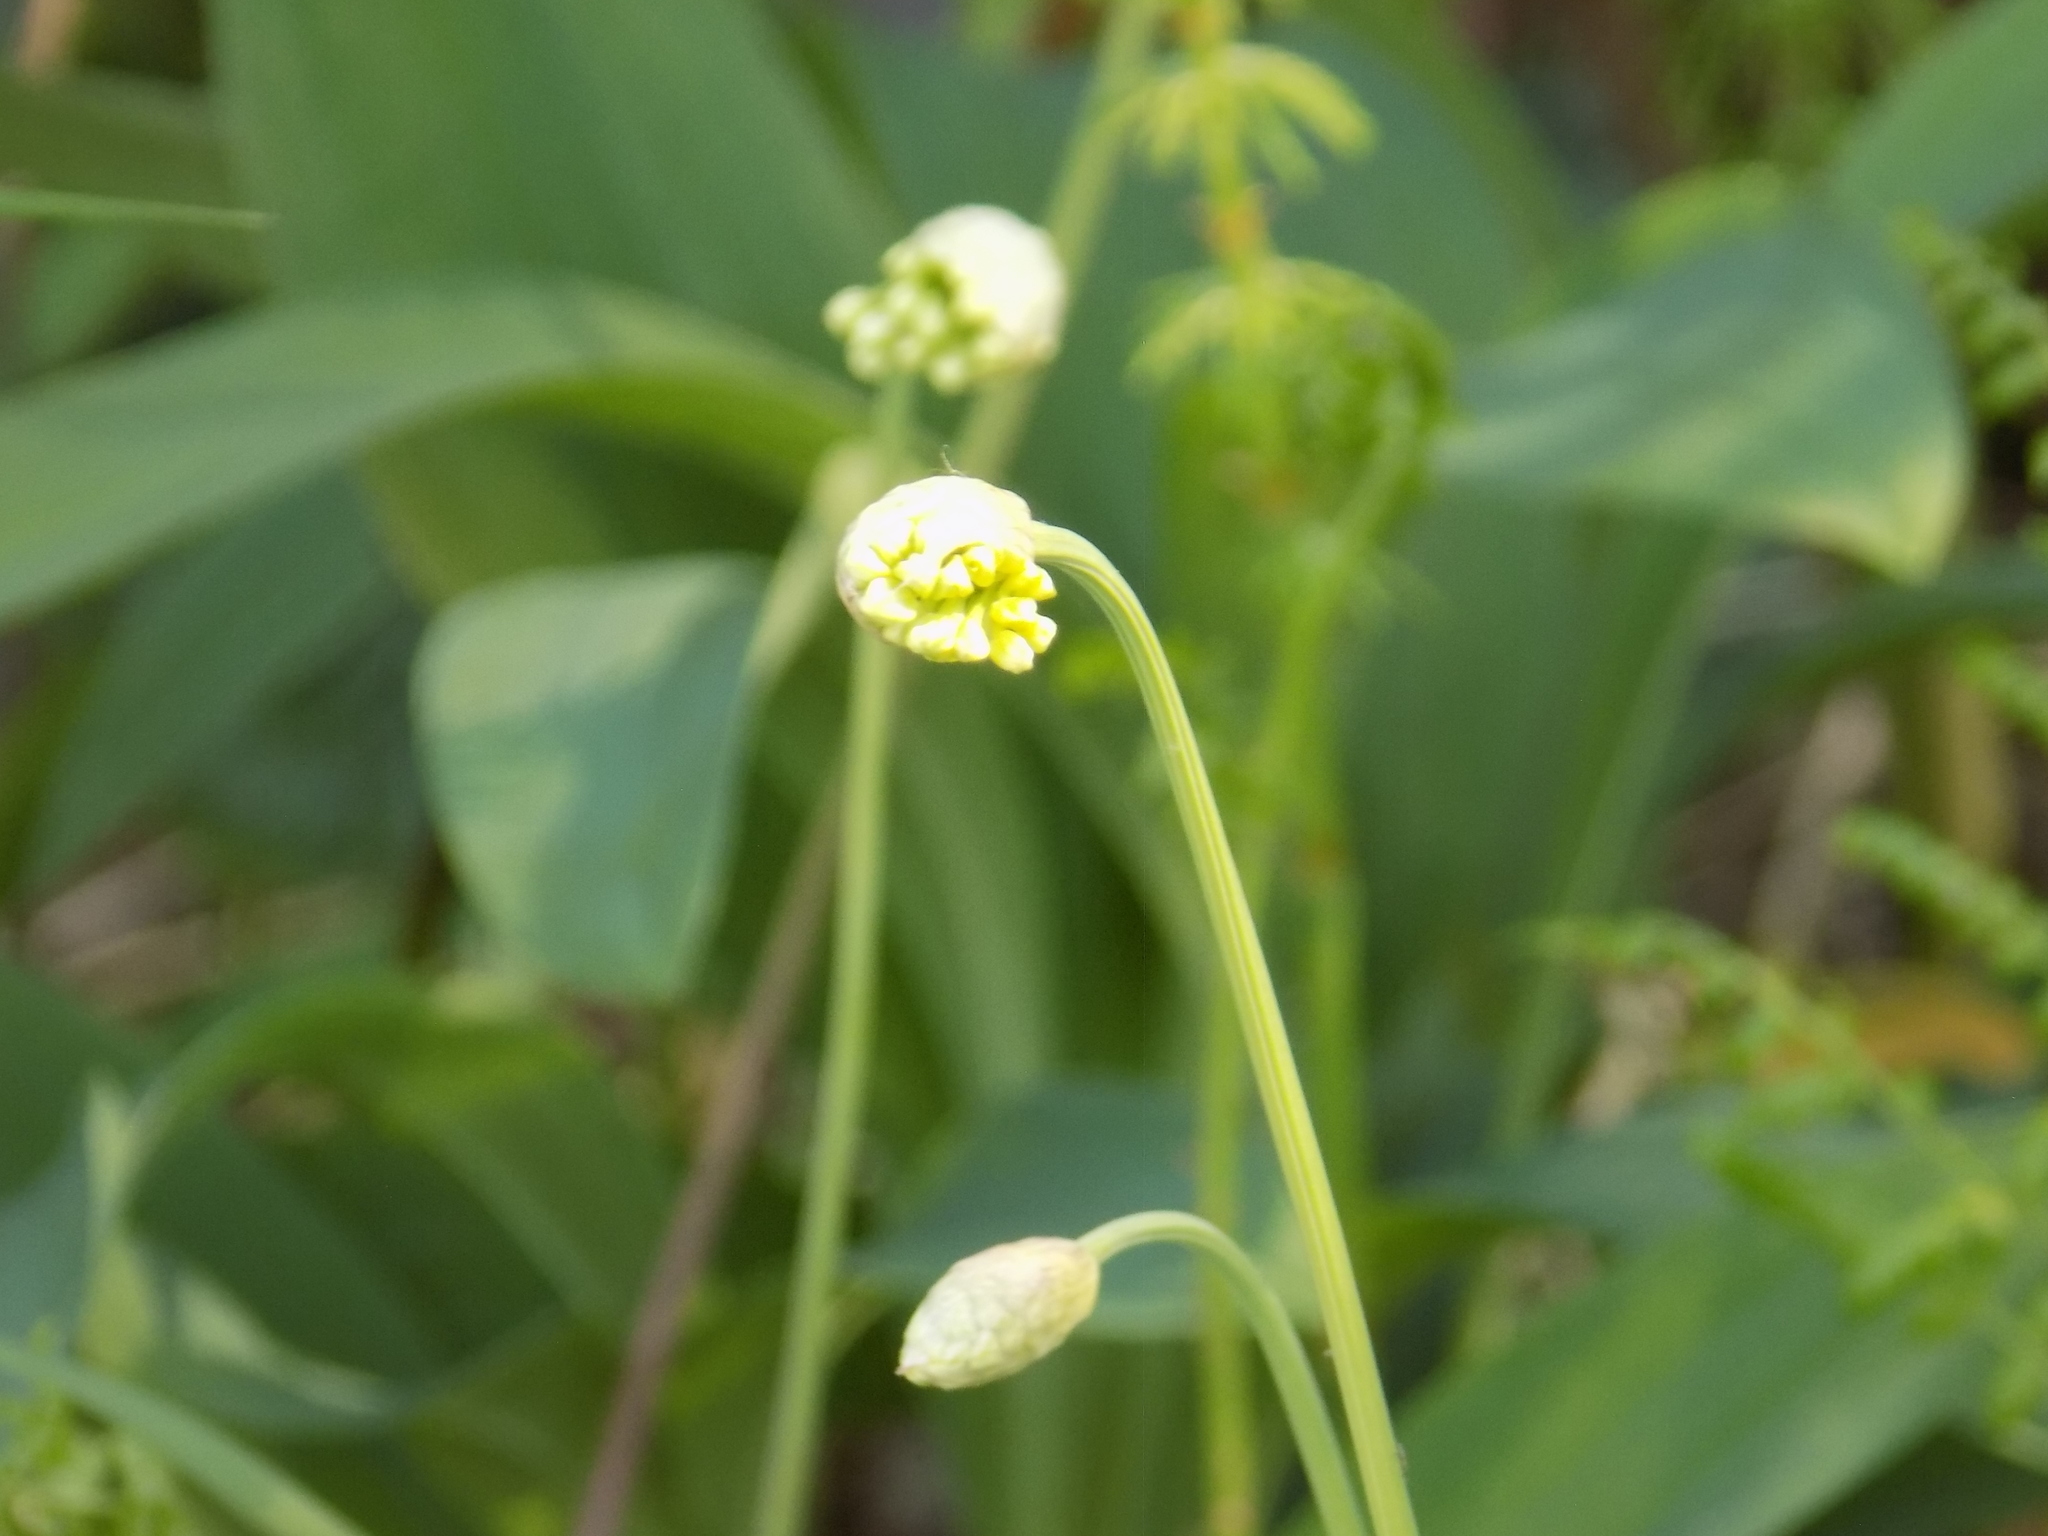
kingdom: Plantae
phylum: Tracheophyta
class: Liliopsida
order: Asparagales
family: Amaryllidaceae
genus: Allium
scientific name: Allium microdictyon
